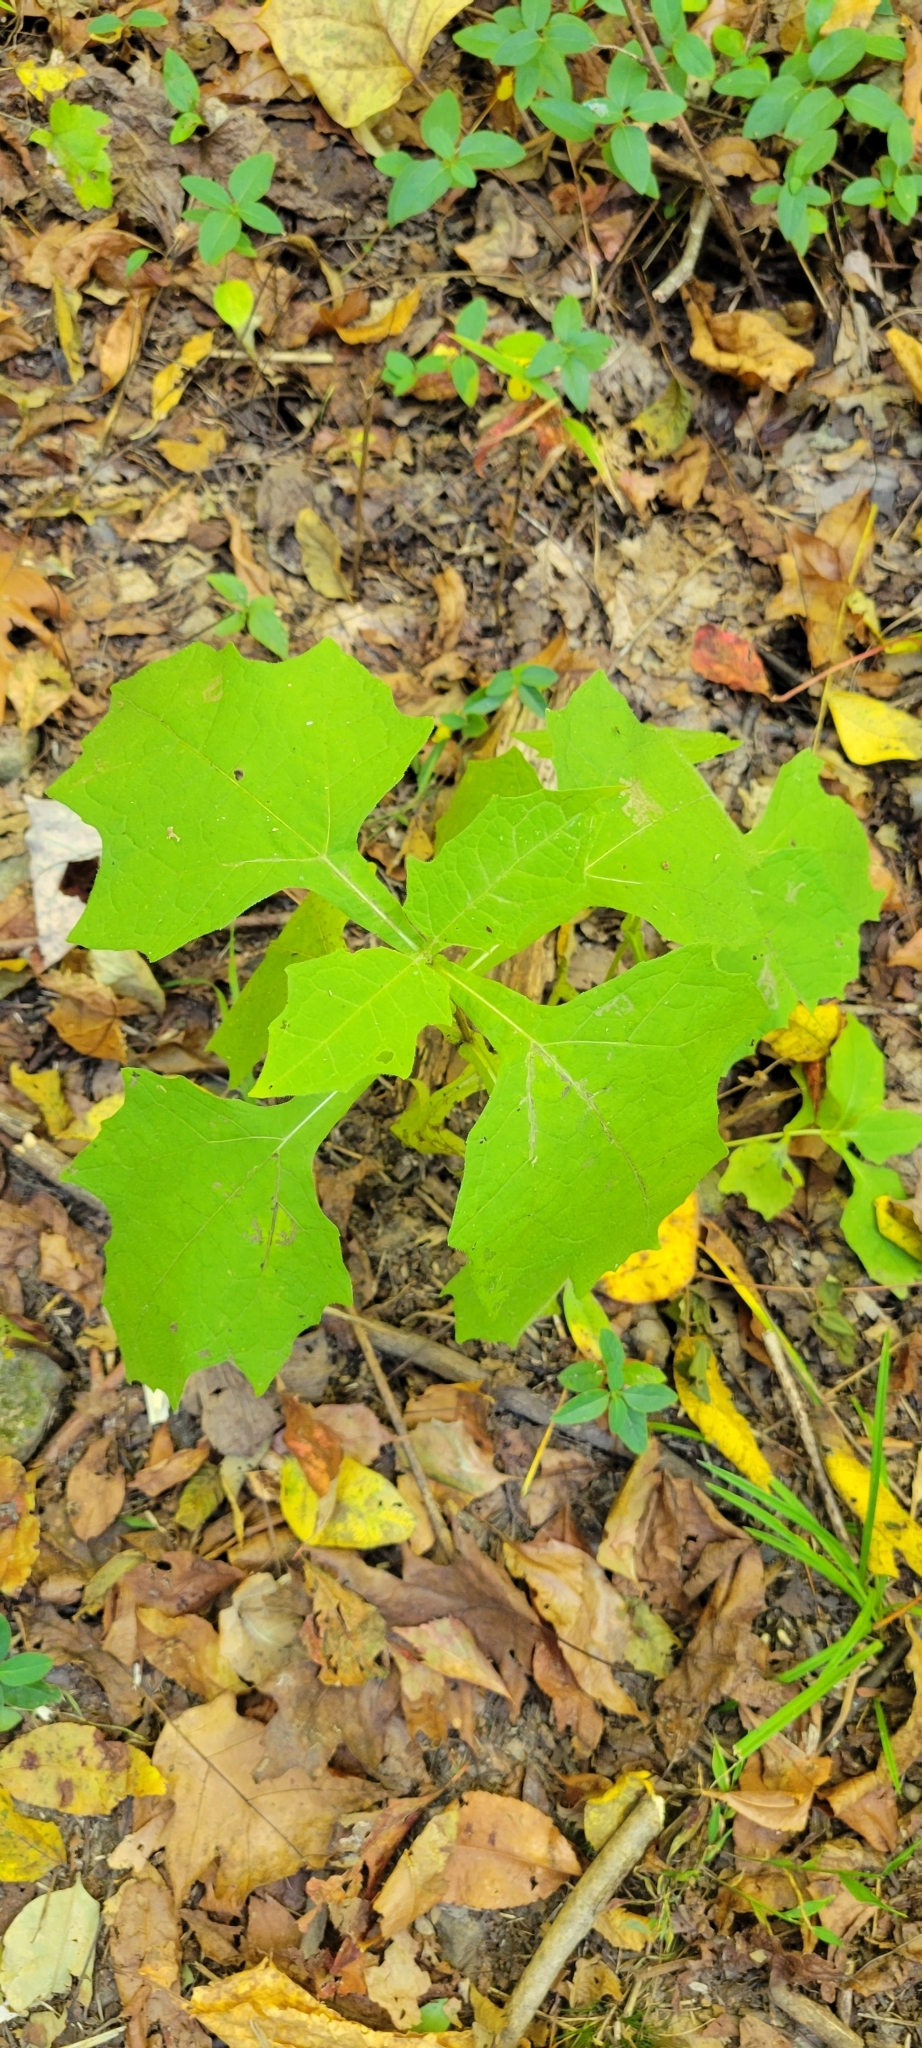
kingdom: Plantae
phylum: Tracheophyta
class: Magnoliopsida
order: Asterales
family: Asteraceae
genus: Smallanthus
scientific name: Smallanthus uvedalia
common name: Bear's-foot
